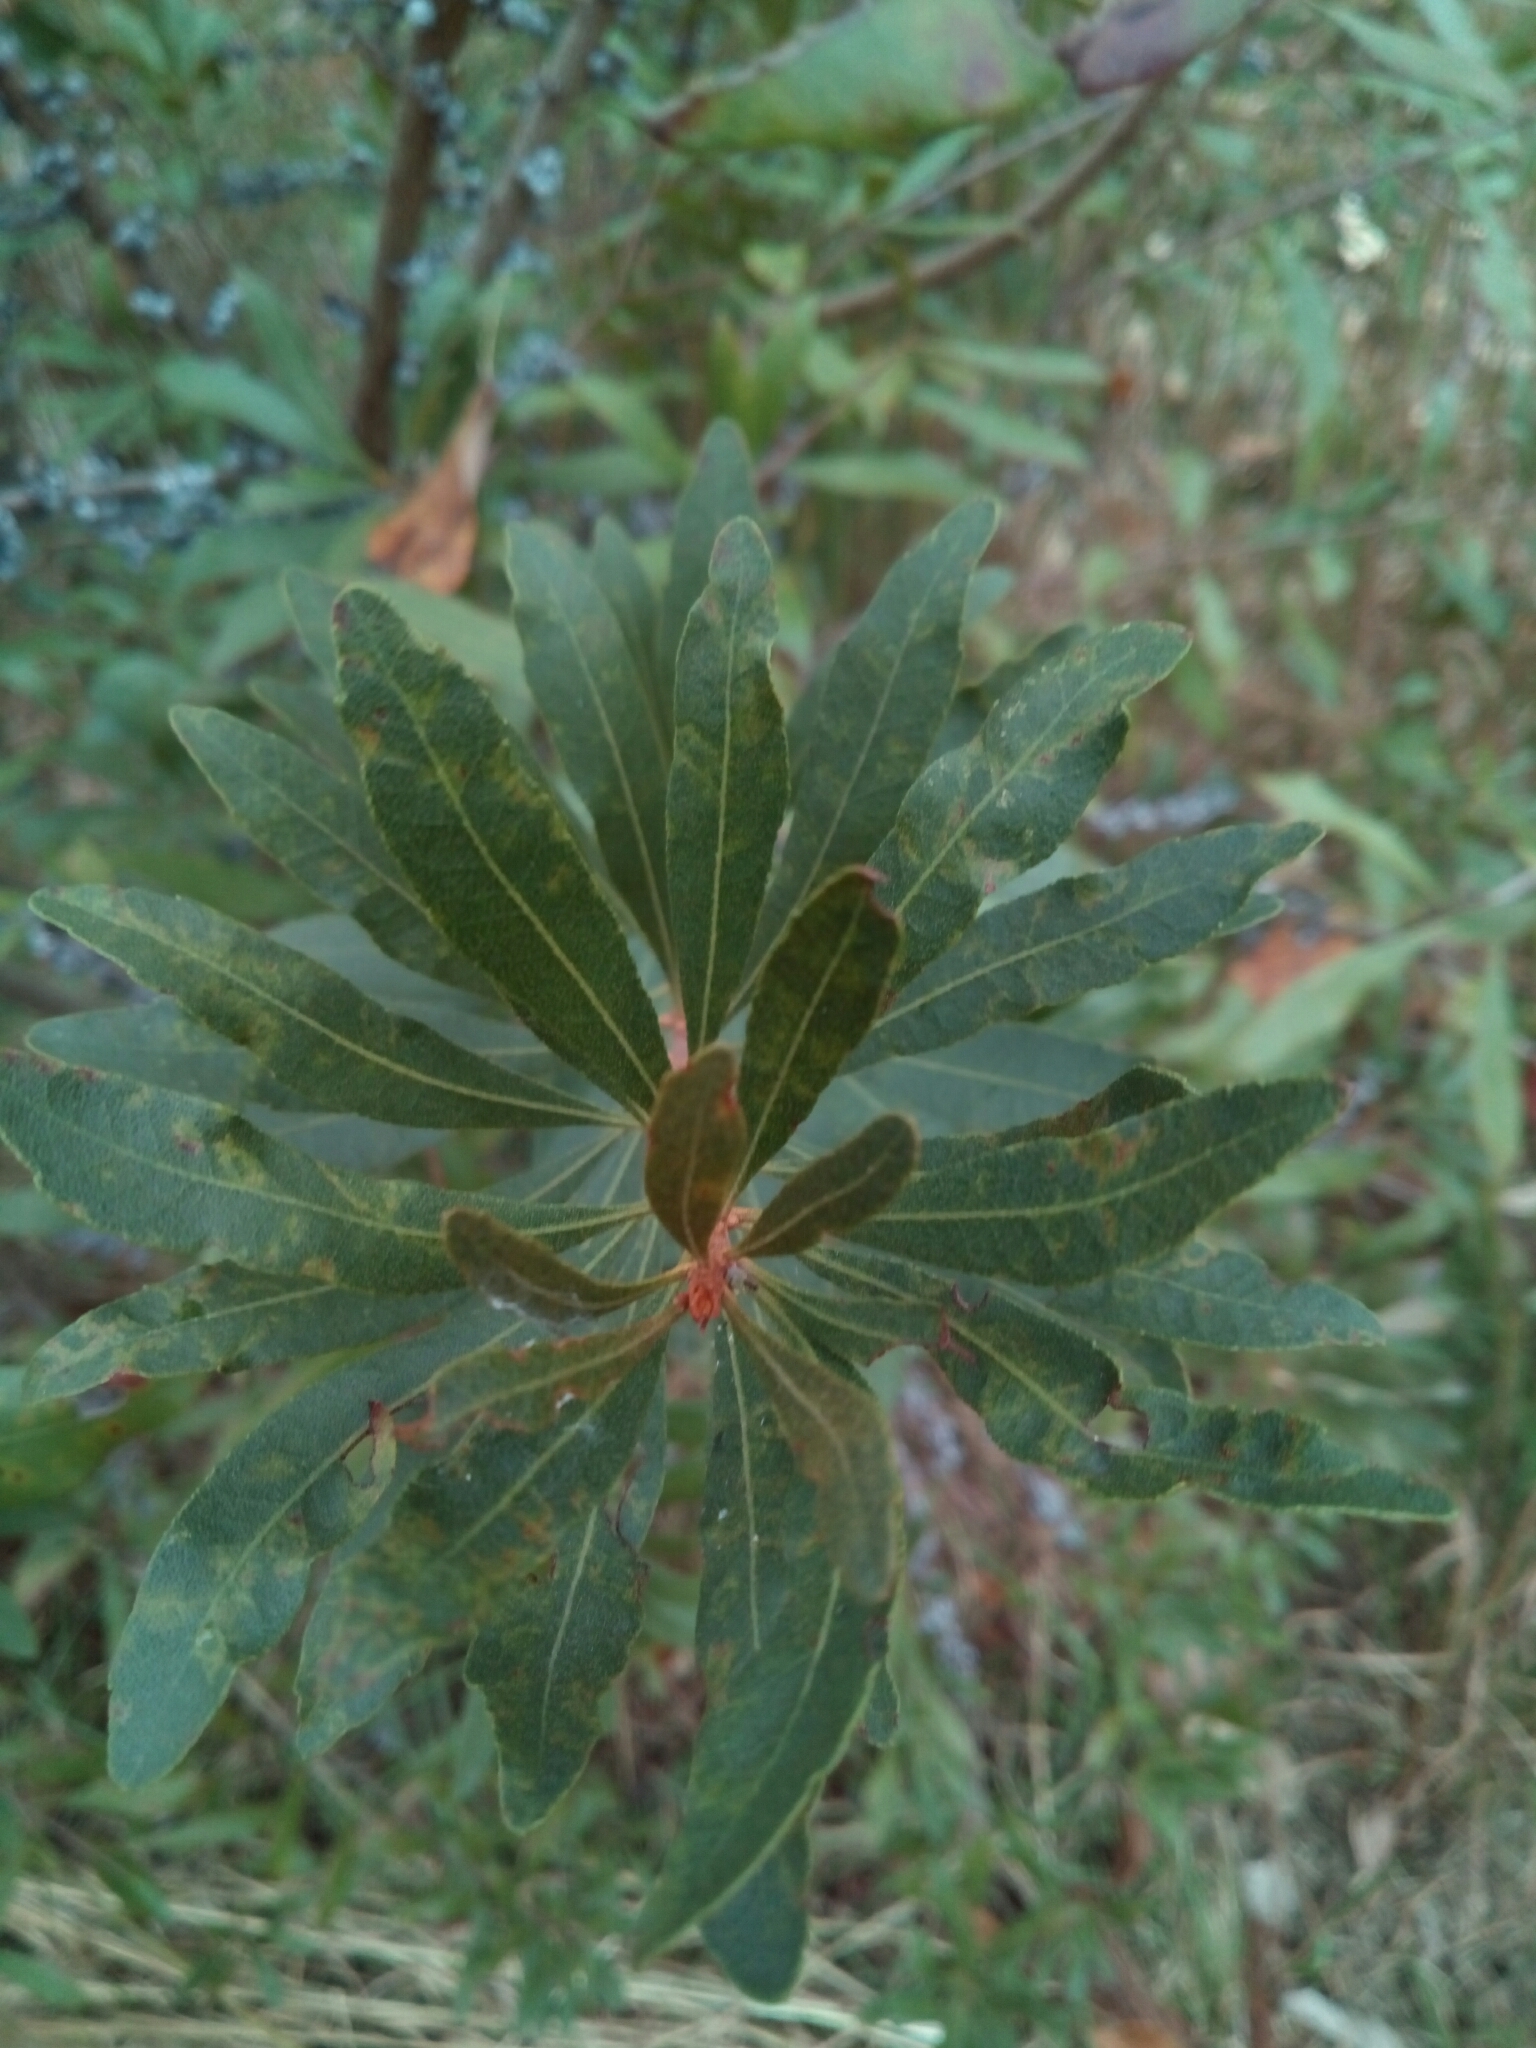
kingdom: Plantae
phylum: Tracheophyta
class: Magnoliopsida
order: Fagales
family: Myricaceae
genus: Morella
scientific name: Morella cerifera
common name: Wax myrtle
